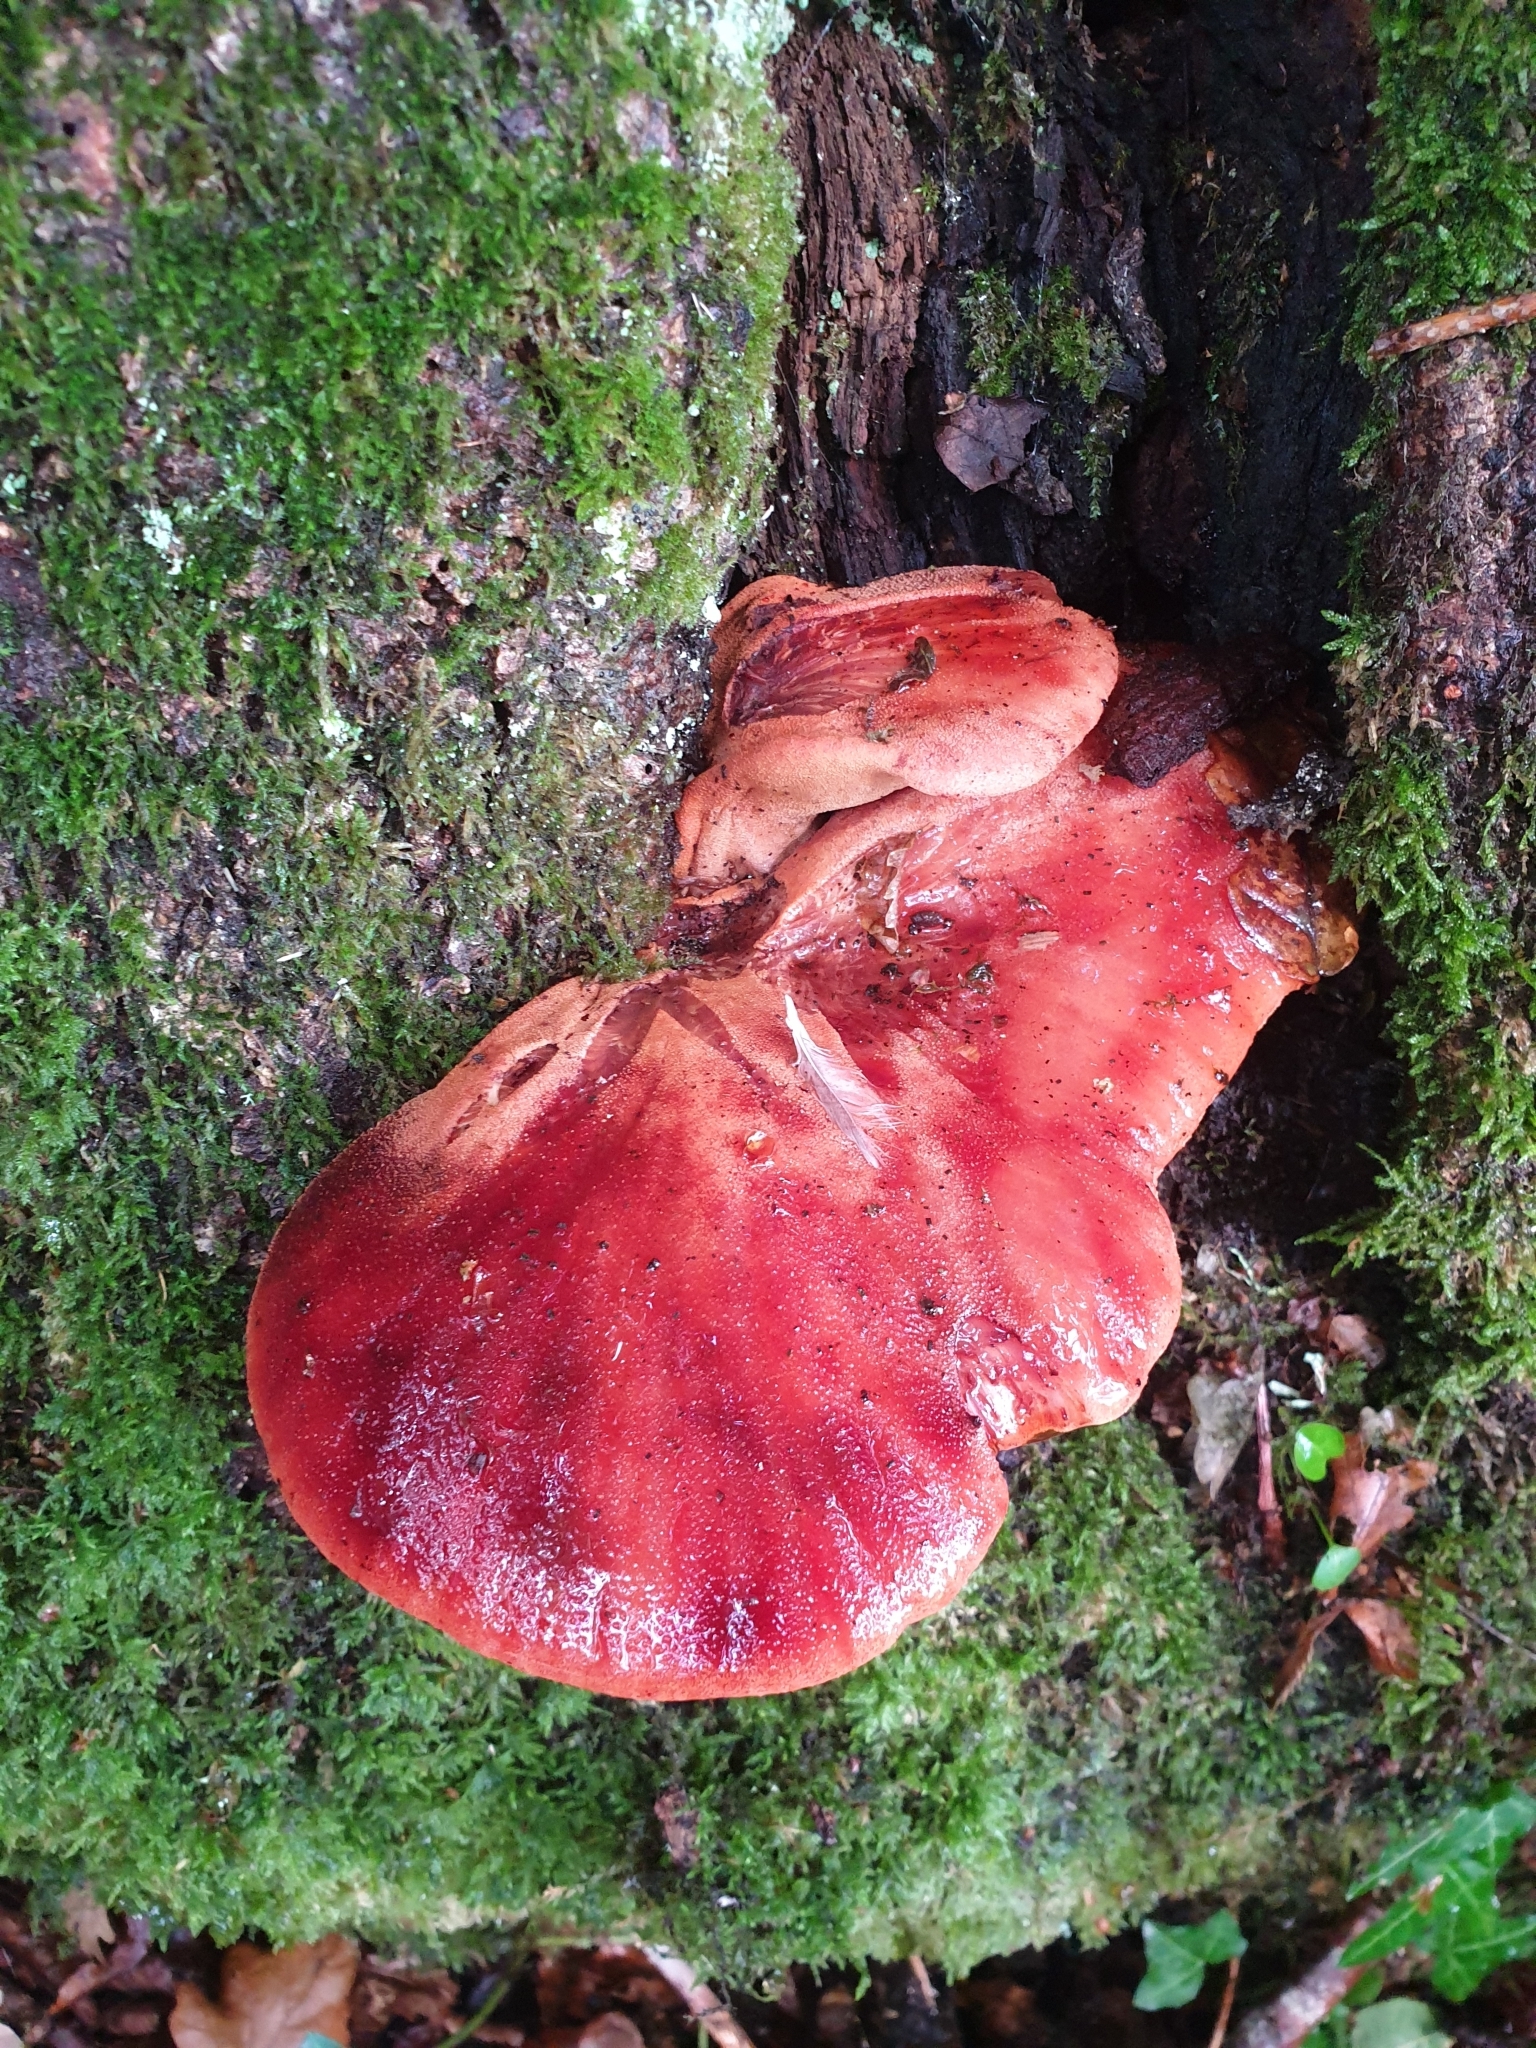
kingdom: Fungi
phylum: Basidiomycota
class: Agaricomycetes
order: Agaricales
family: Fistulinaceae
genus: Fistulina
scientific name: Fistulina hepatica
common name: Beef-steak fungus
